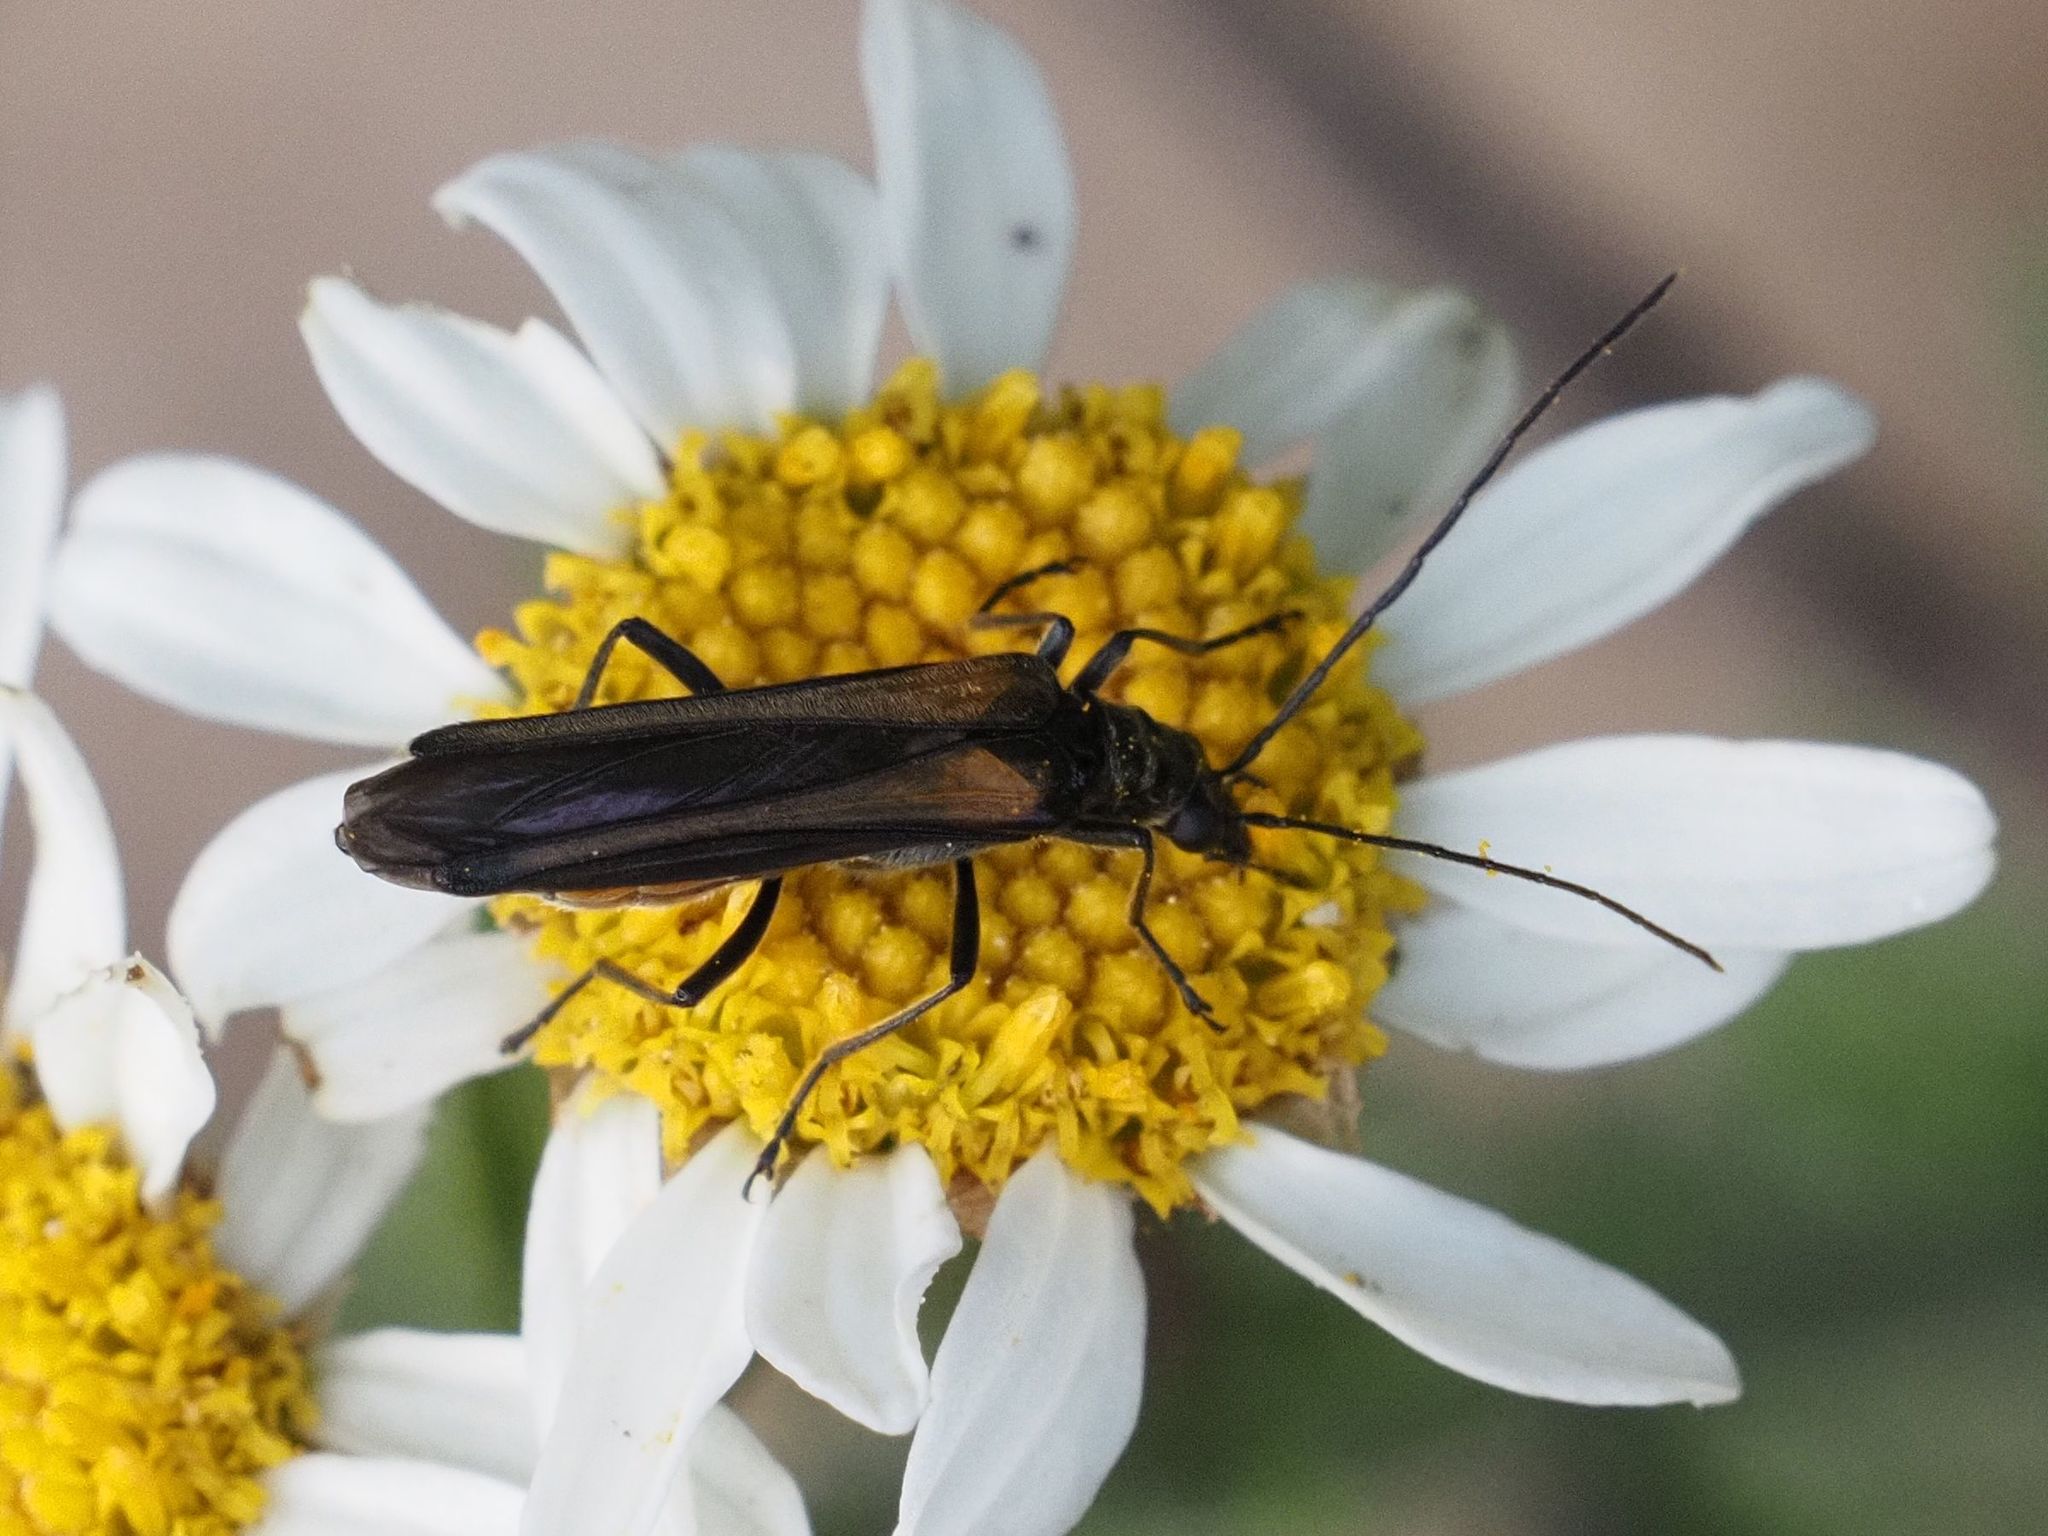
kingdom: Animalia
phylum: Arthropoda
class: Insecta
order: Coleoptera
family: Oedemeridae
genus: Oedemera
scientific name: Oedemera pthysica
